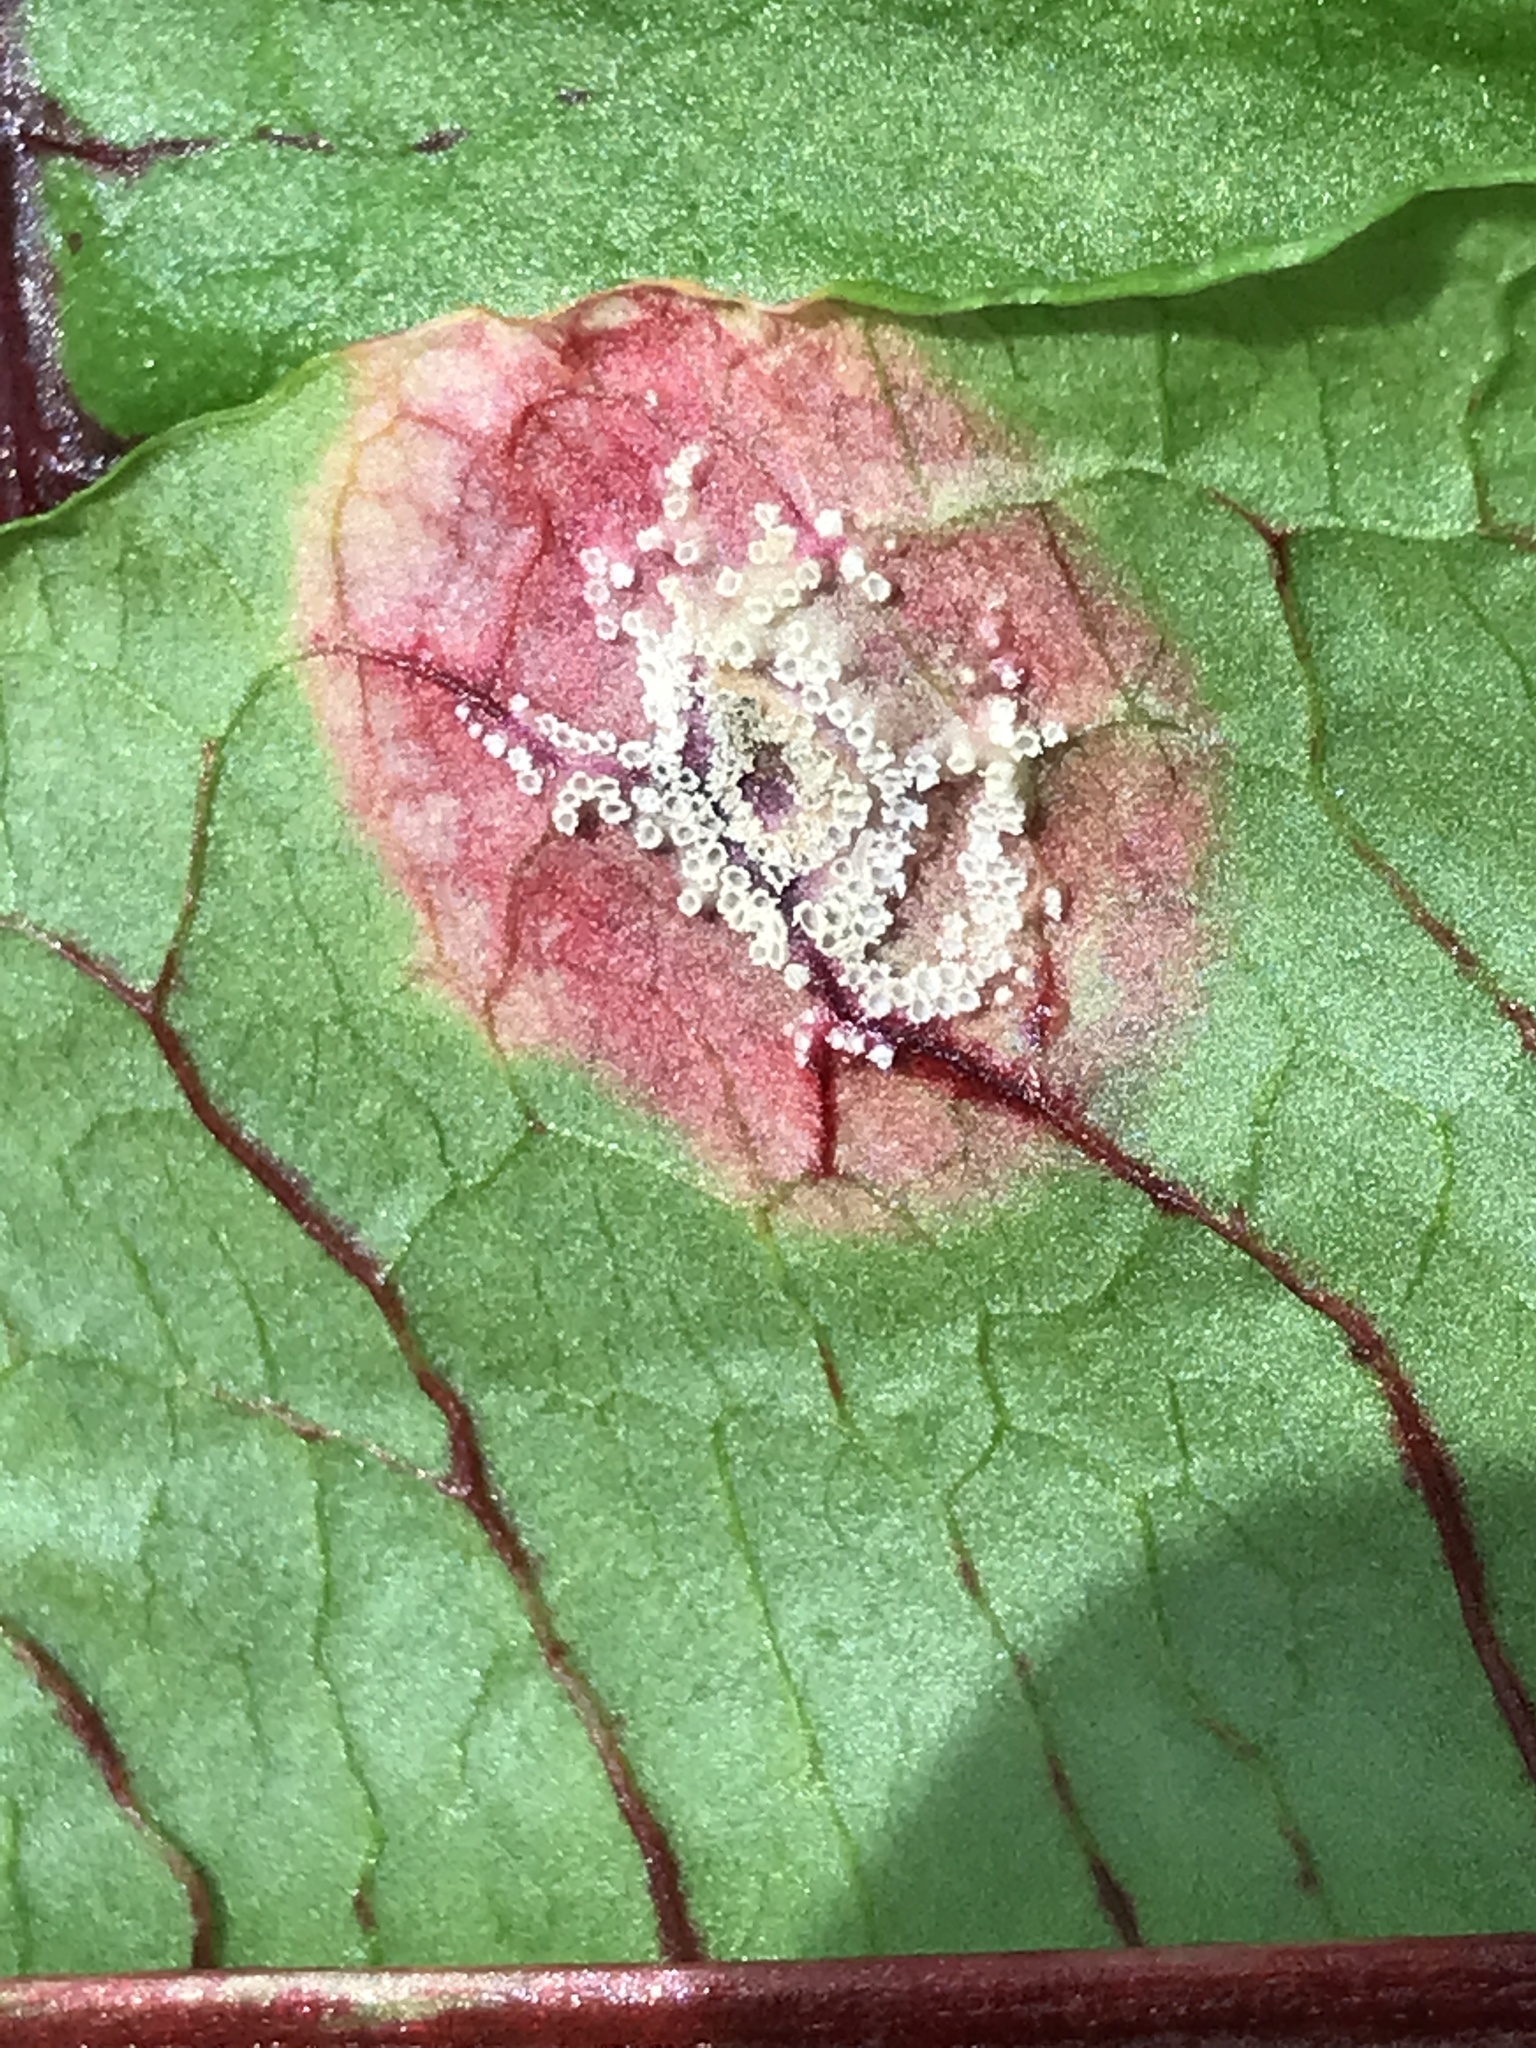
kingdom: Fungi
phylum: Basidiomycota
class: Pucciniomycetes
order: Pucciniales
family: Pucciniaceae
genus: Puccinia
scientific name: Puccinia phragmitis
